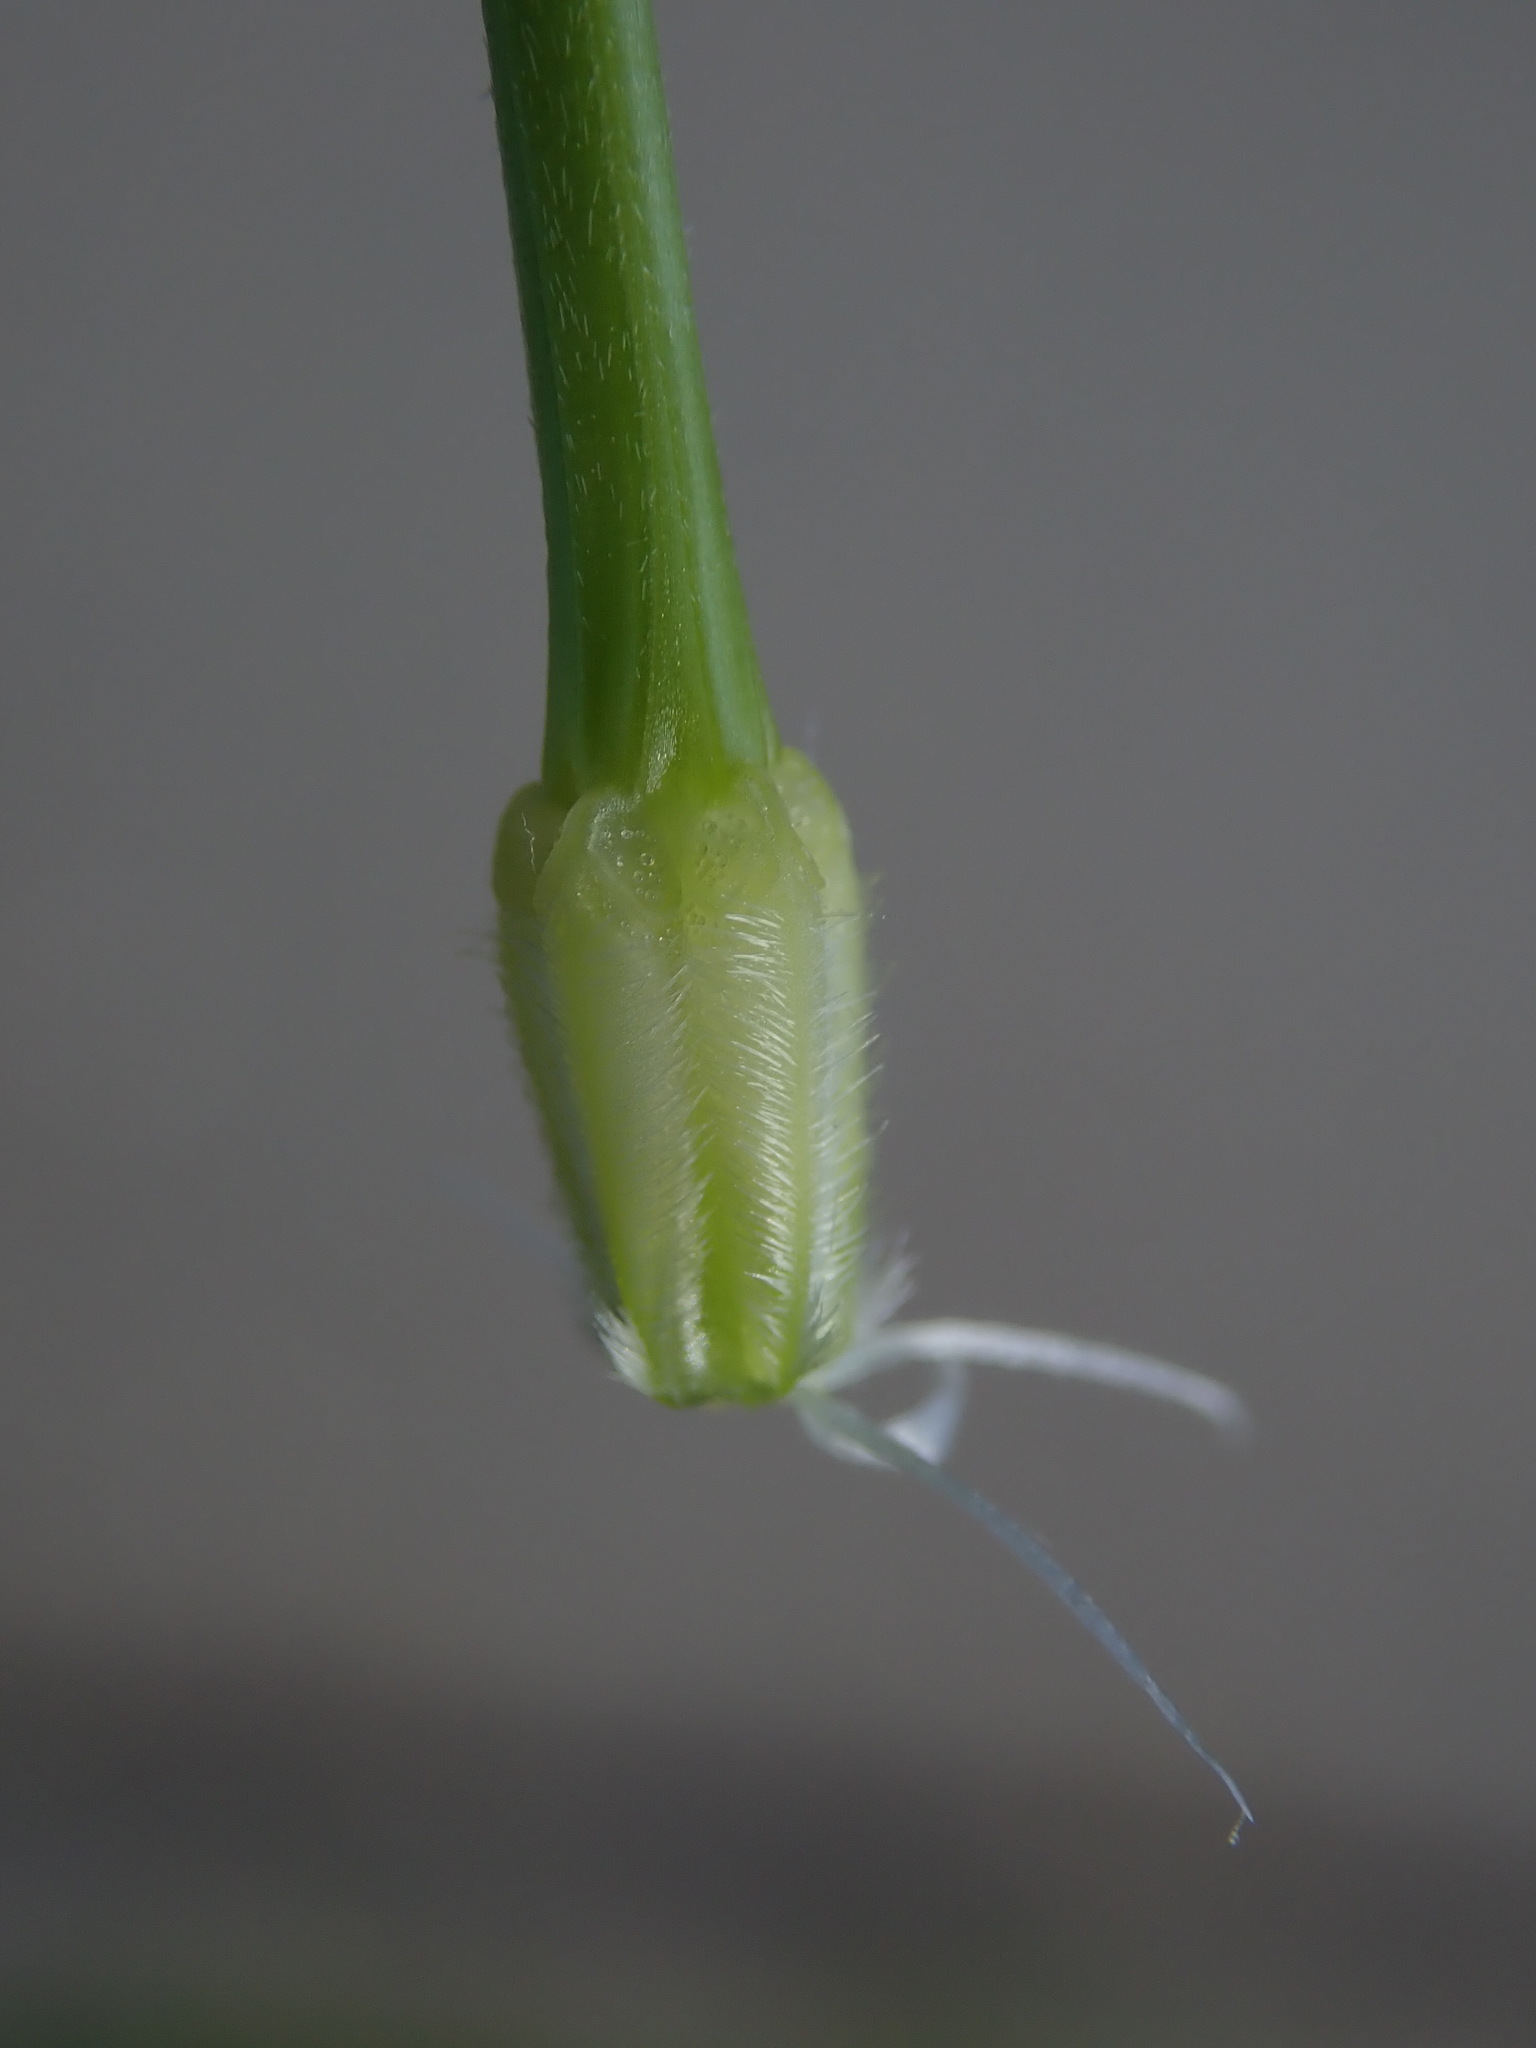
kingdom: Plantae
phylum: Tracheophyta
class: Magnoliopsida
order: Geraniales
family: Geraniaceae
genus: Erodium
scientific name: Erodium moschatum
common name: Musk stork's-bill
